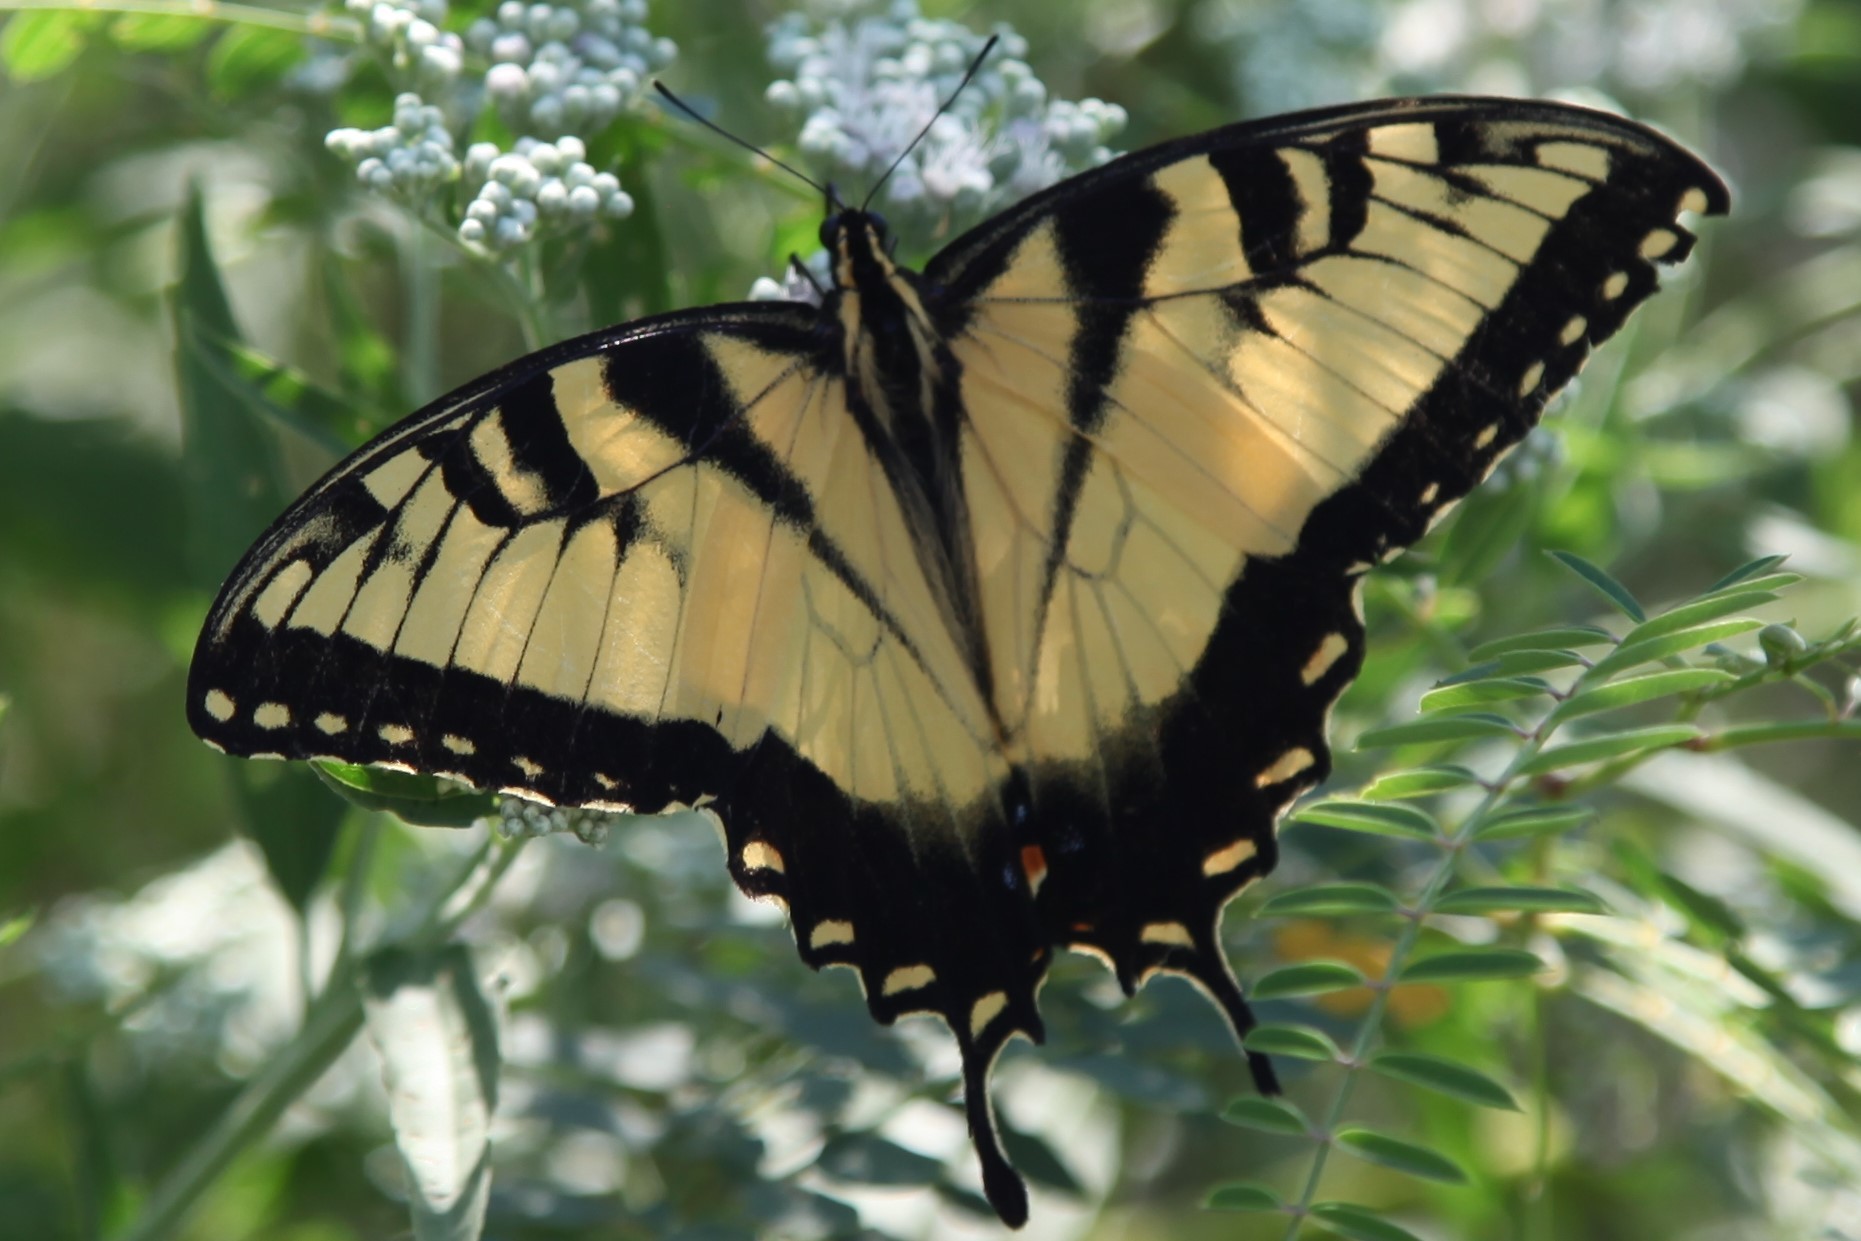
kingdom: Animalia
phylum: Arthropoda
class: Insecta
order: Lepidoptera
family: Papilionidae
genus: Papilio
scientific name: Papilio glaucus
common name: Tiger swallowtail
